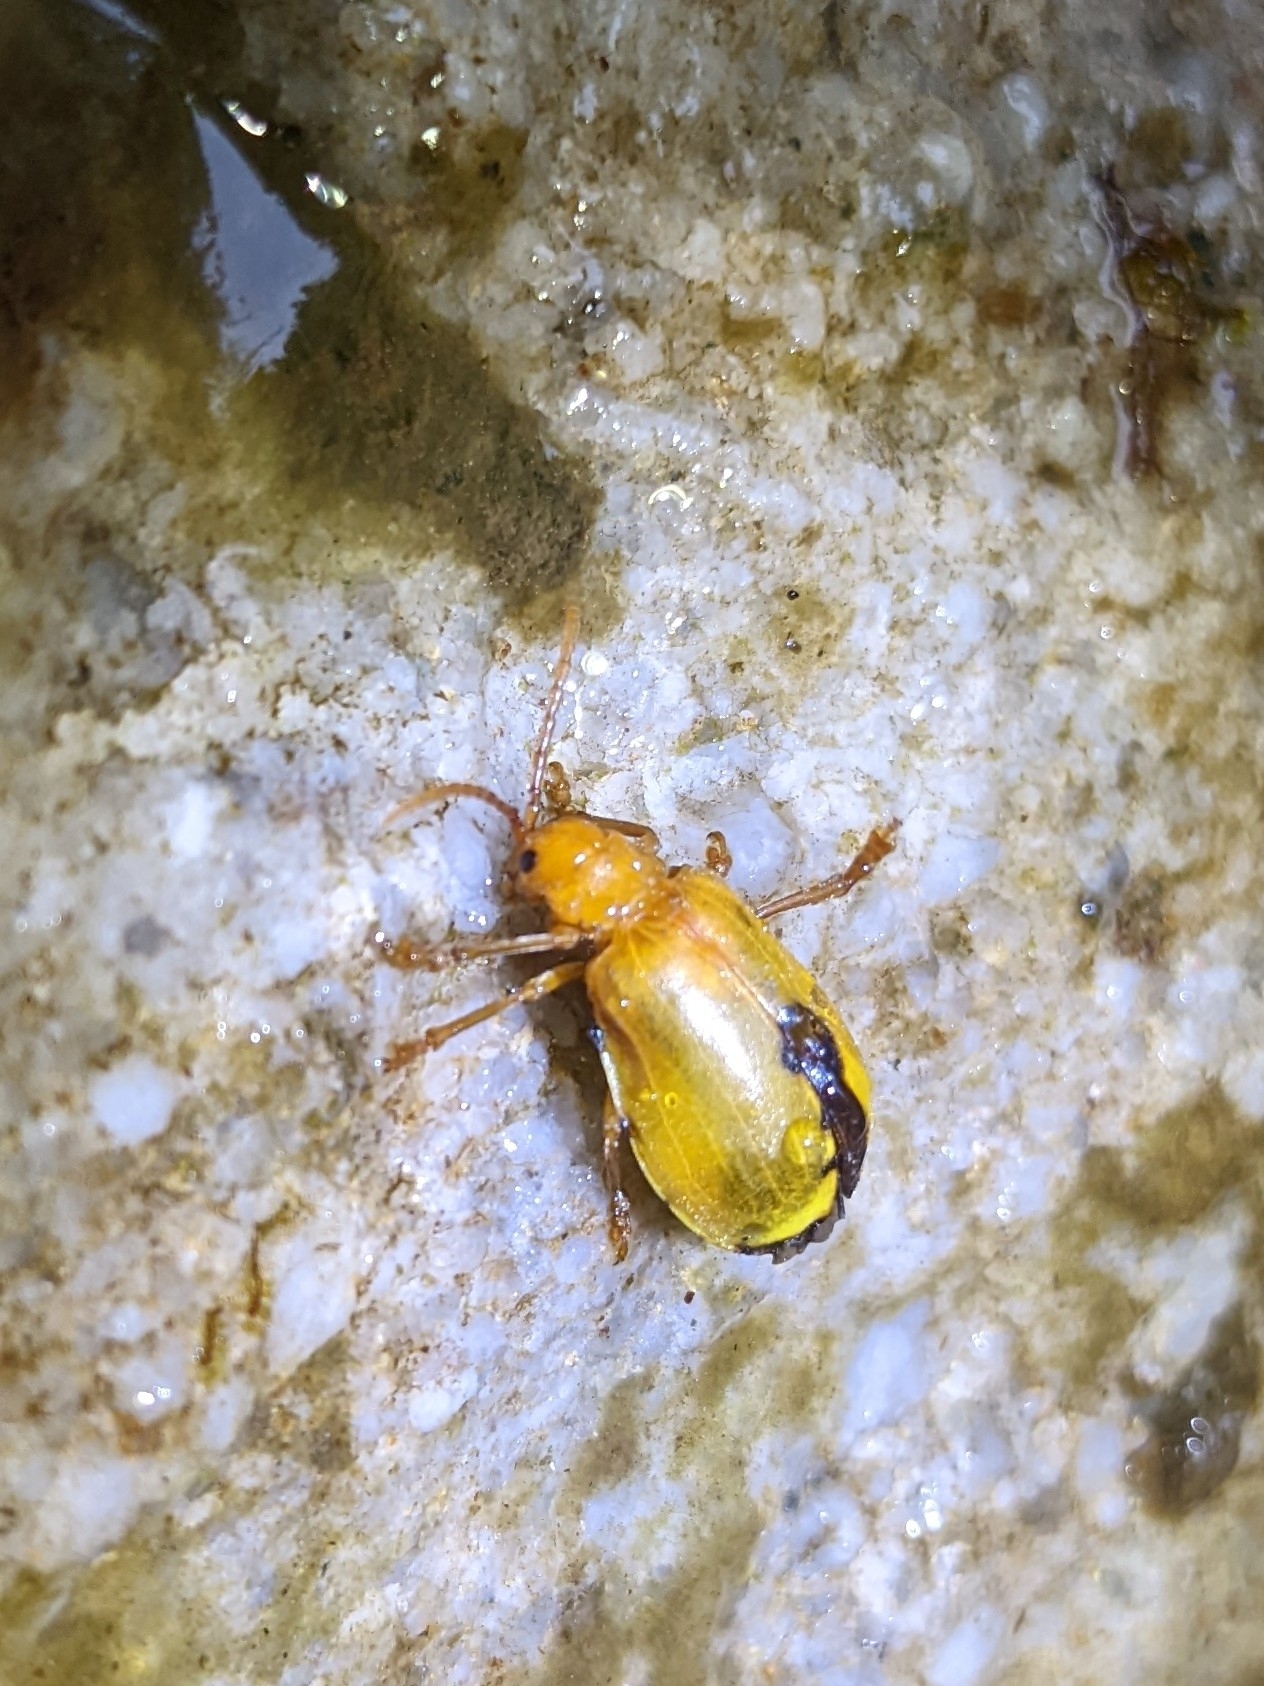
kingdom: Animalia
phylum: Arthropoda
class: Insecta
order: Coleoptera
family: Chrysomelidae
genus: Monocesta
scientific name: Monocesta coryli
